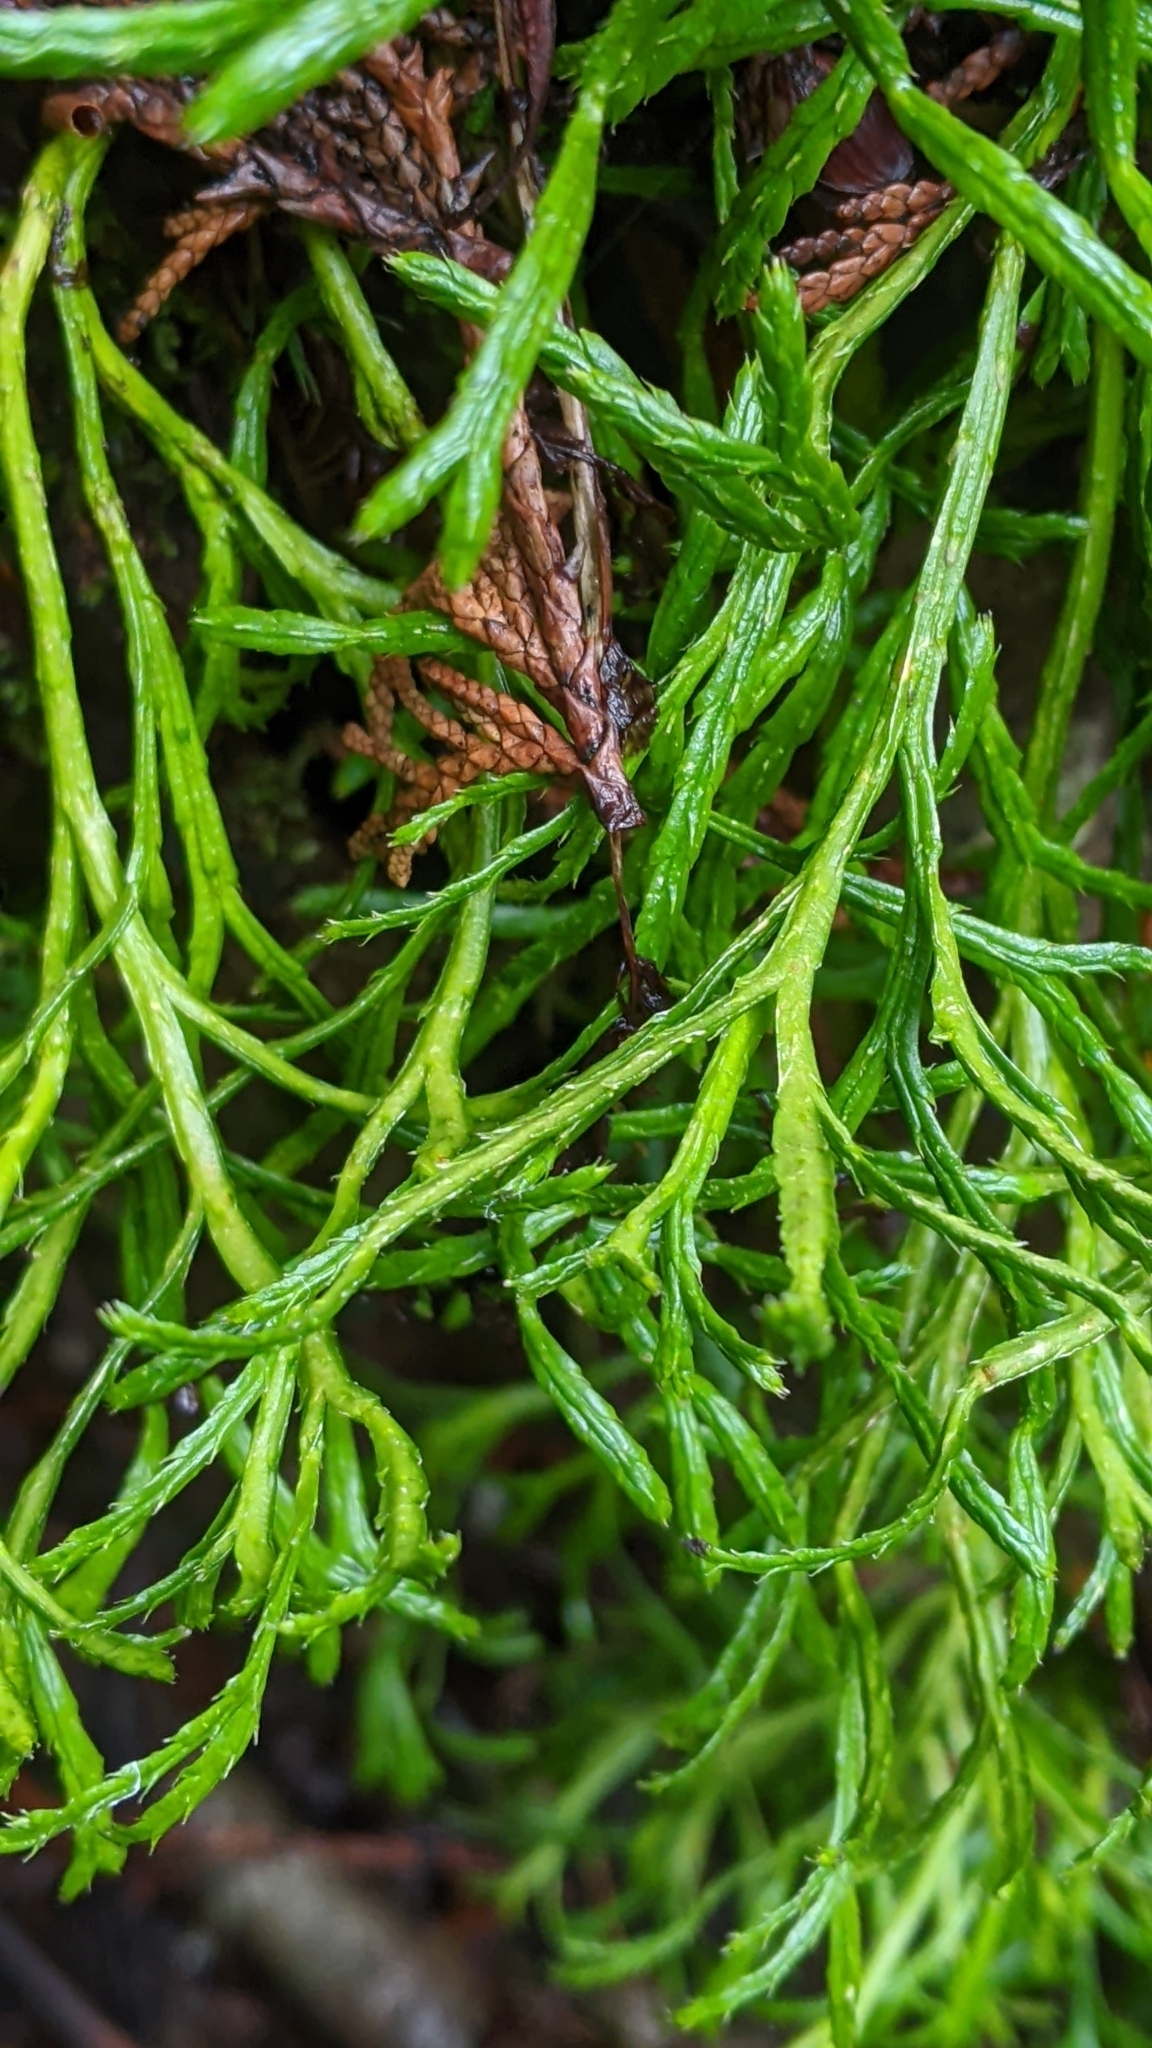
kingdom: Plantae
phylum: Tracheophyta
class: Lycopodiopsida
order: Lycopodiales
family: Lycopodiaceae
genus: Diphasiastrum
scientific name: Diphasiastrum complanatum
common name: Northern running-pine
